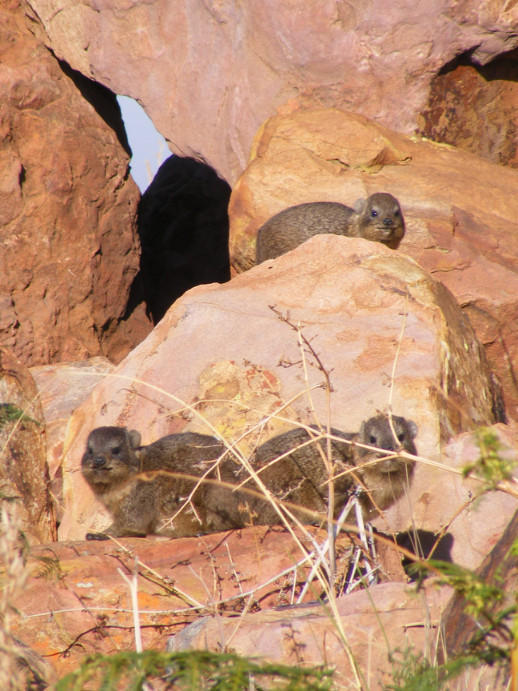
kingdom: Animalia
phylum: Chordata
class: Mammalia
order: Hyracoidea
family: Procaviidae
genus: Procavia
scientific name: Procavia capensis
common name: Rock hyrax
